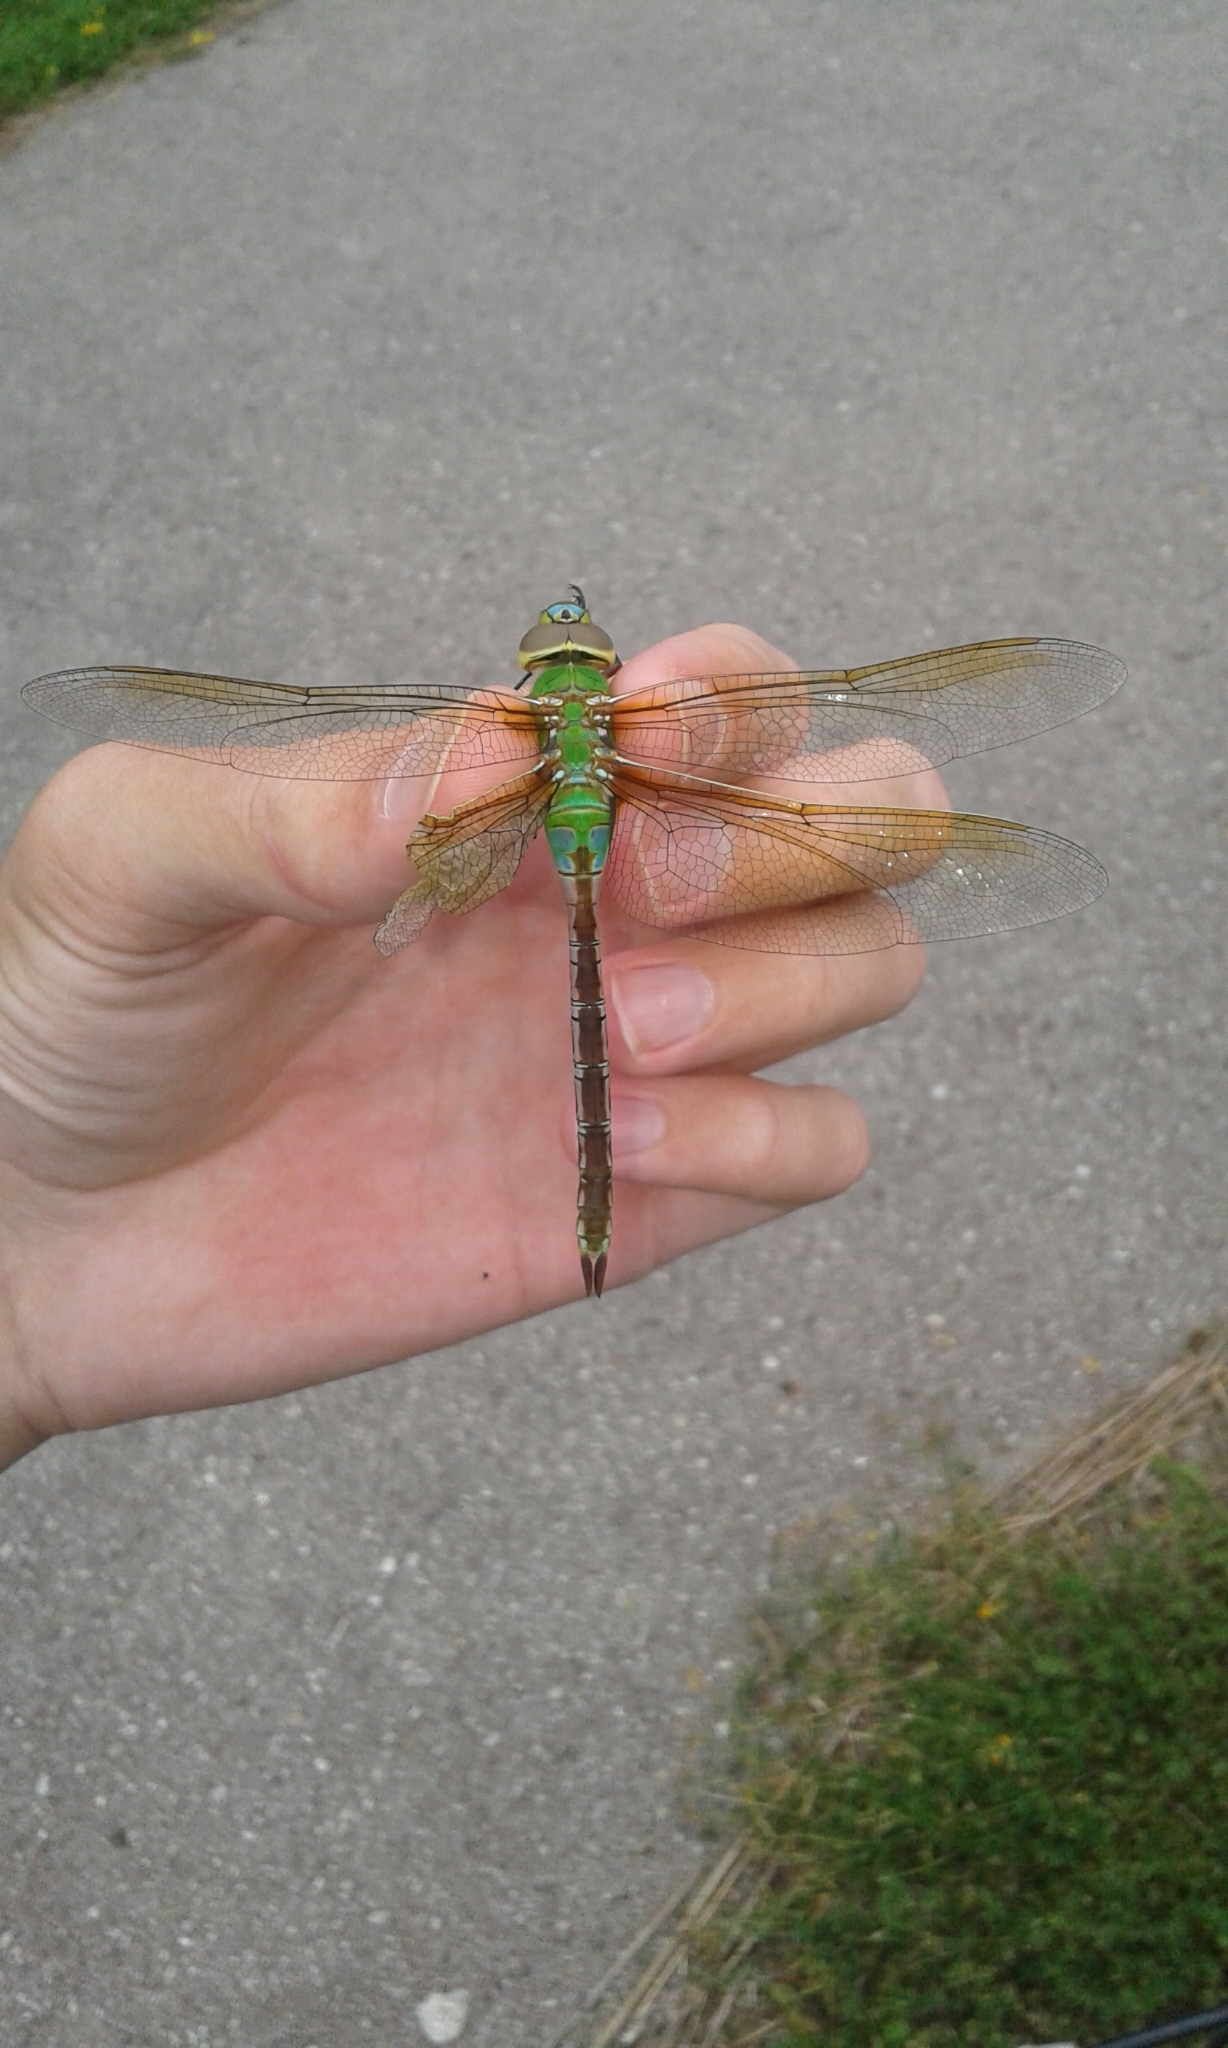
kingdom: Animalia
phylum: Arthropoda
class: Insecta
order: Odonata
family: Aeshnidae
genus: Anax
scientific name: Anax junius
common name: Common green darner
